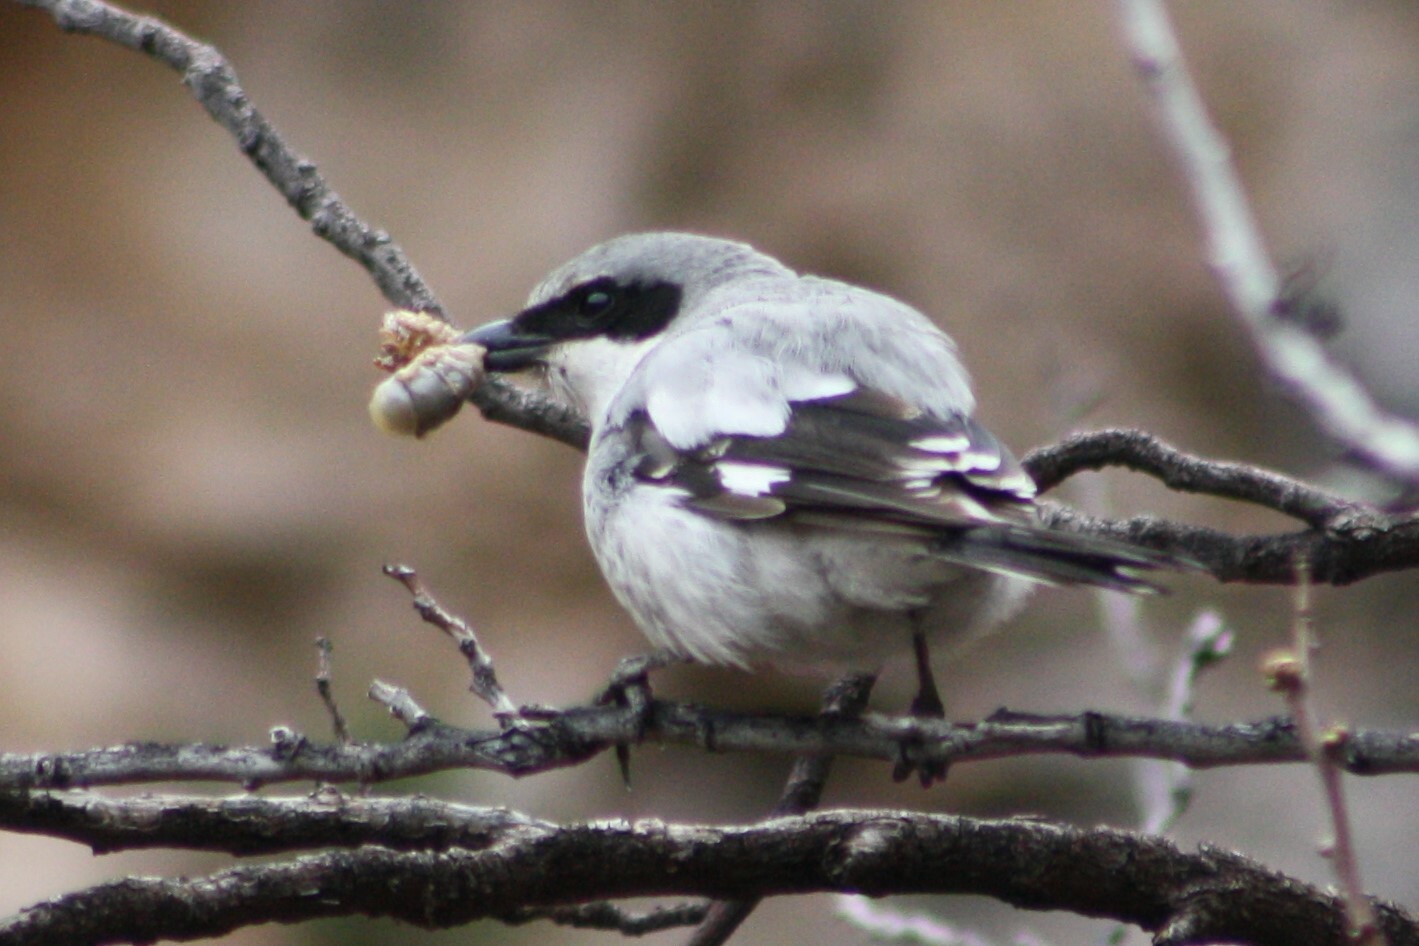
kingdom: Animalia
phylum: Chordata
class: Aves
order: Passeriformes
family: Laniidae
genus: Lanius
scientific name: Lanius ludovicianus
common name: Loggerhead shrike
